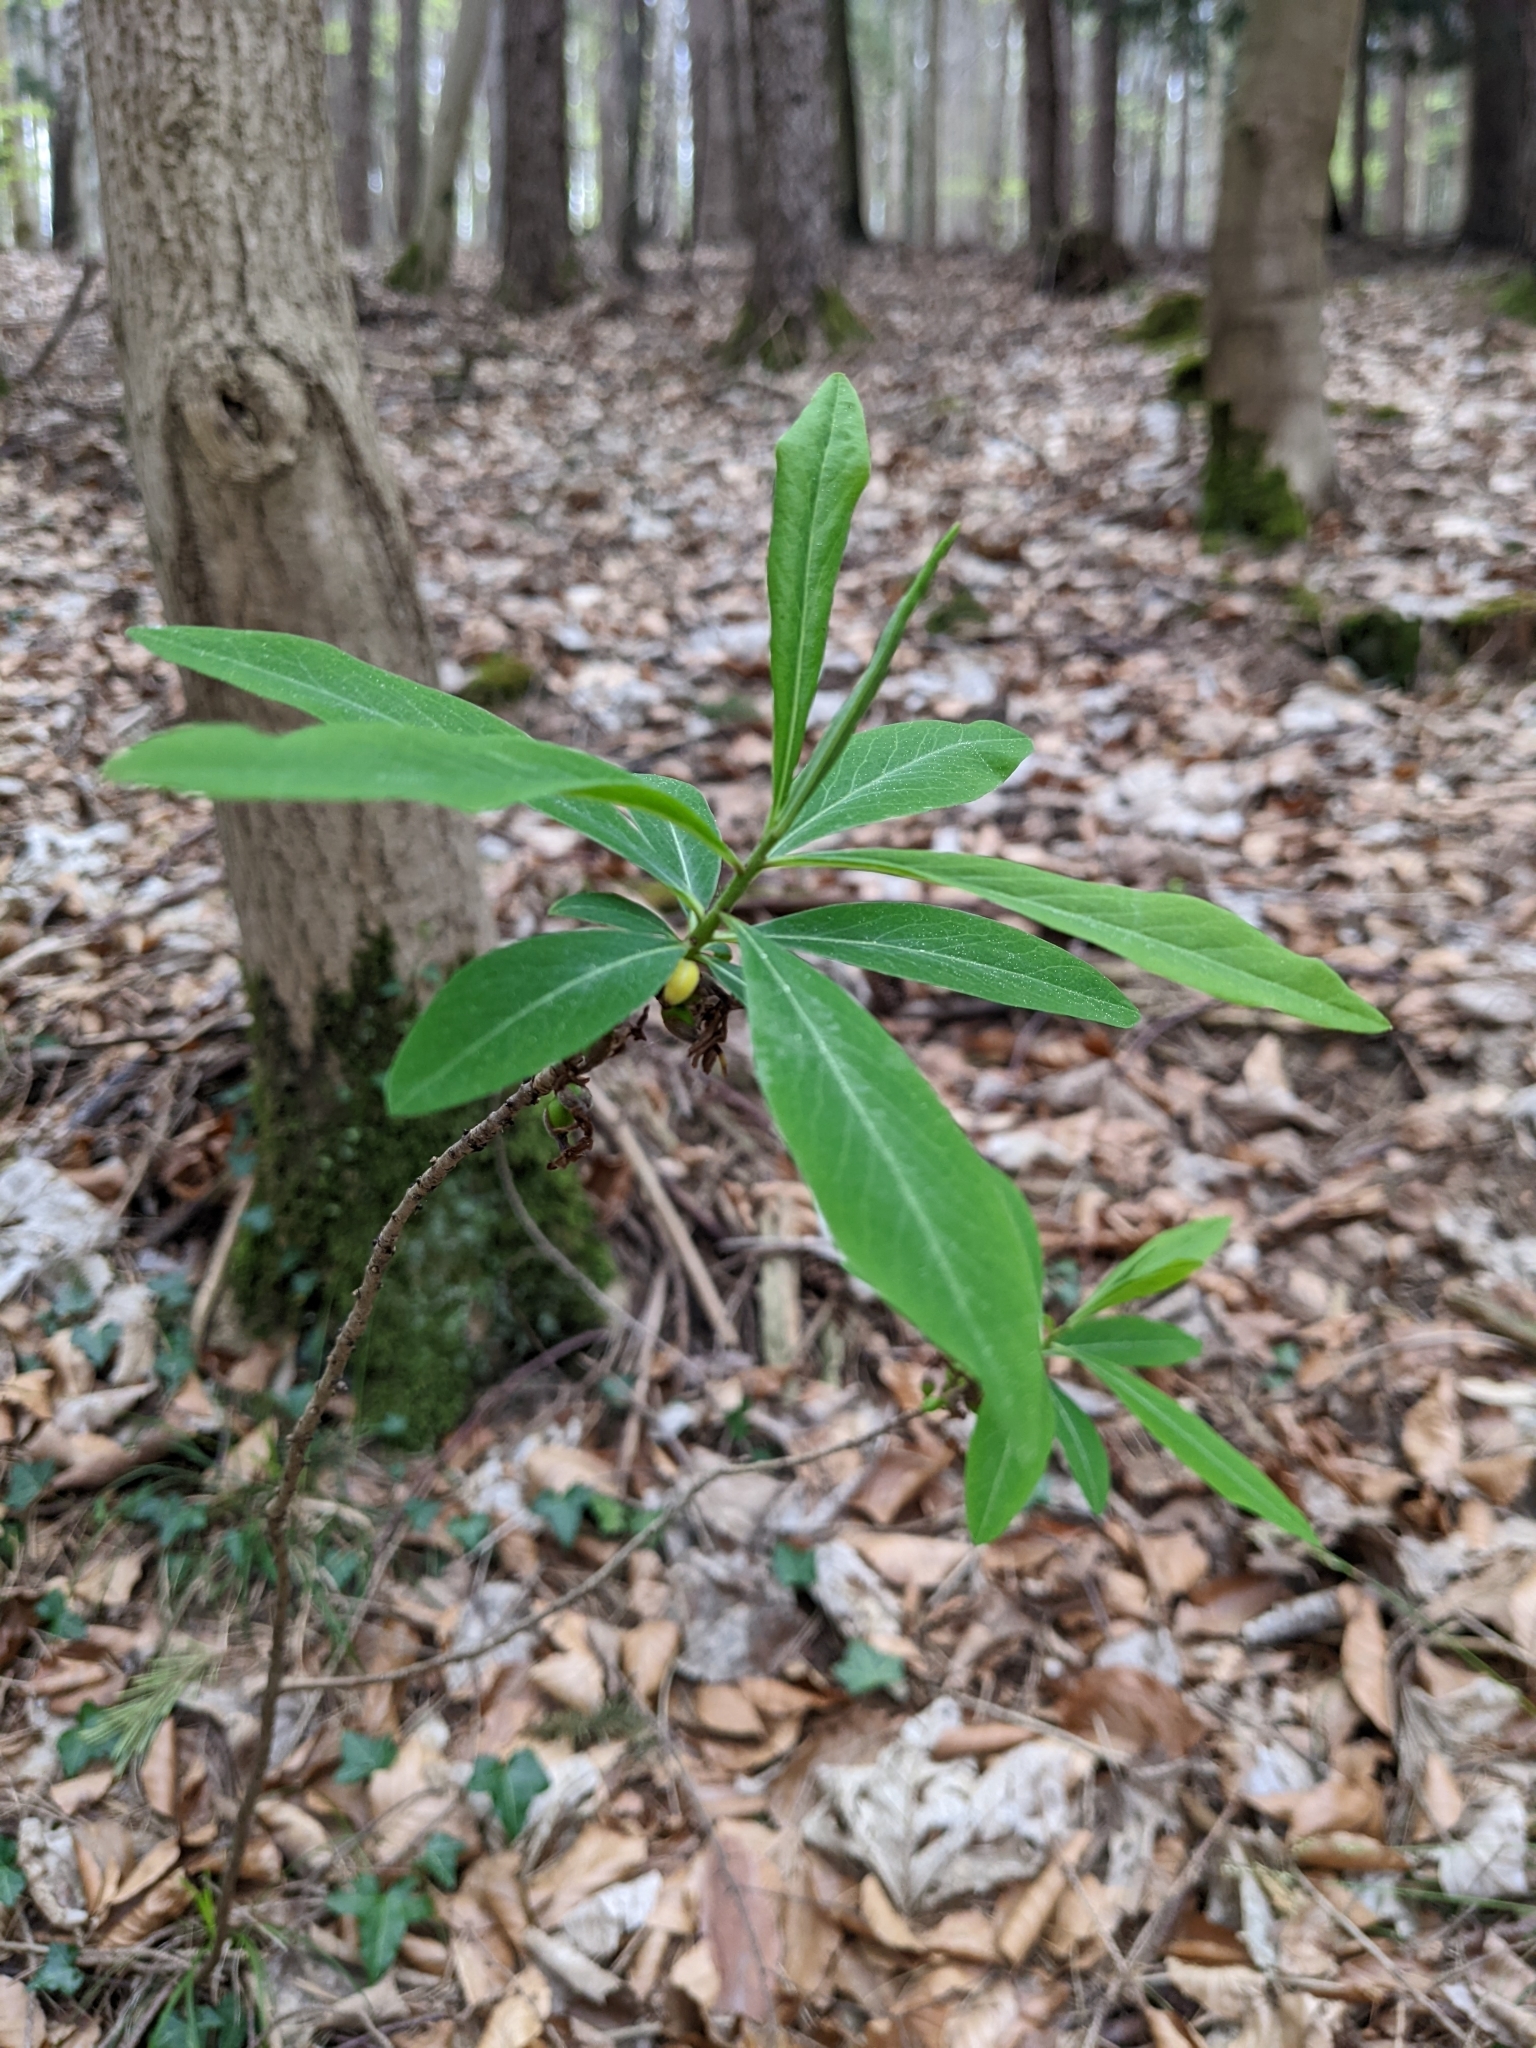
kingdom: Plantae
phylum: Tracheophyta
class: Magnoliopsida
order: Malvales
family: Thymelaeaceae
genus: Daphne
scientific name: Daphne mezereum
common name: Mezereon
